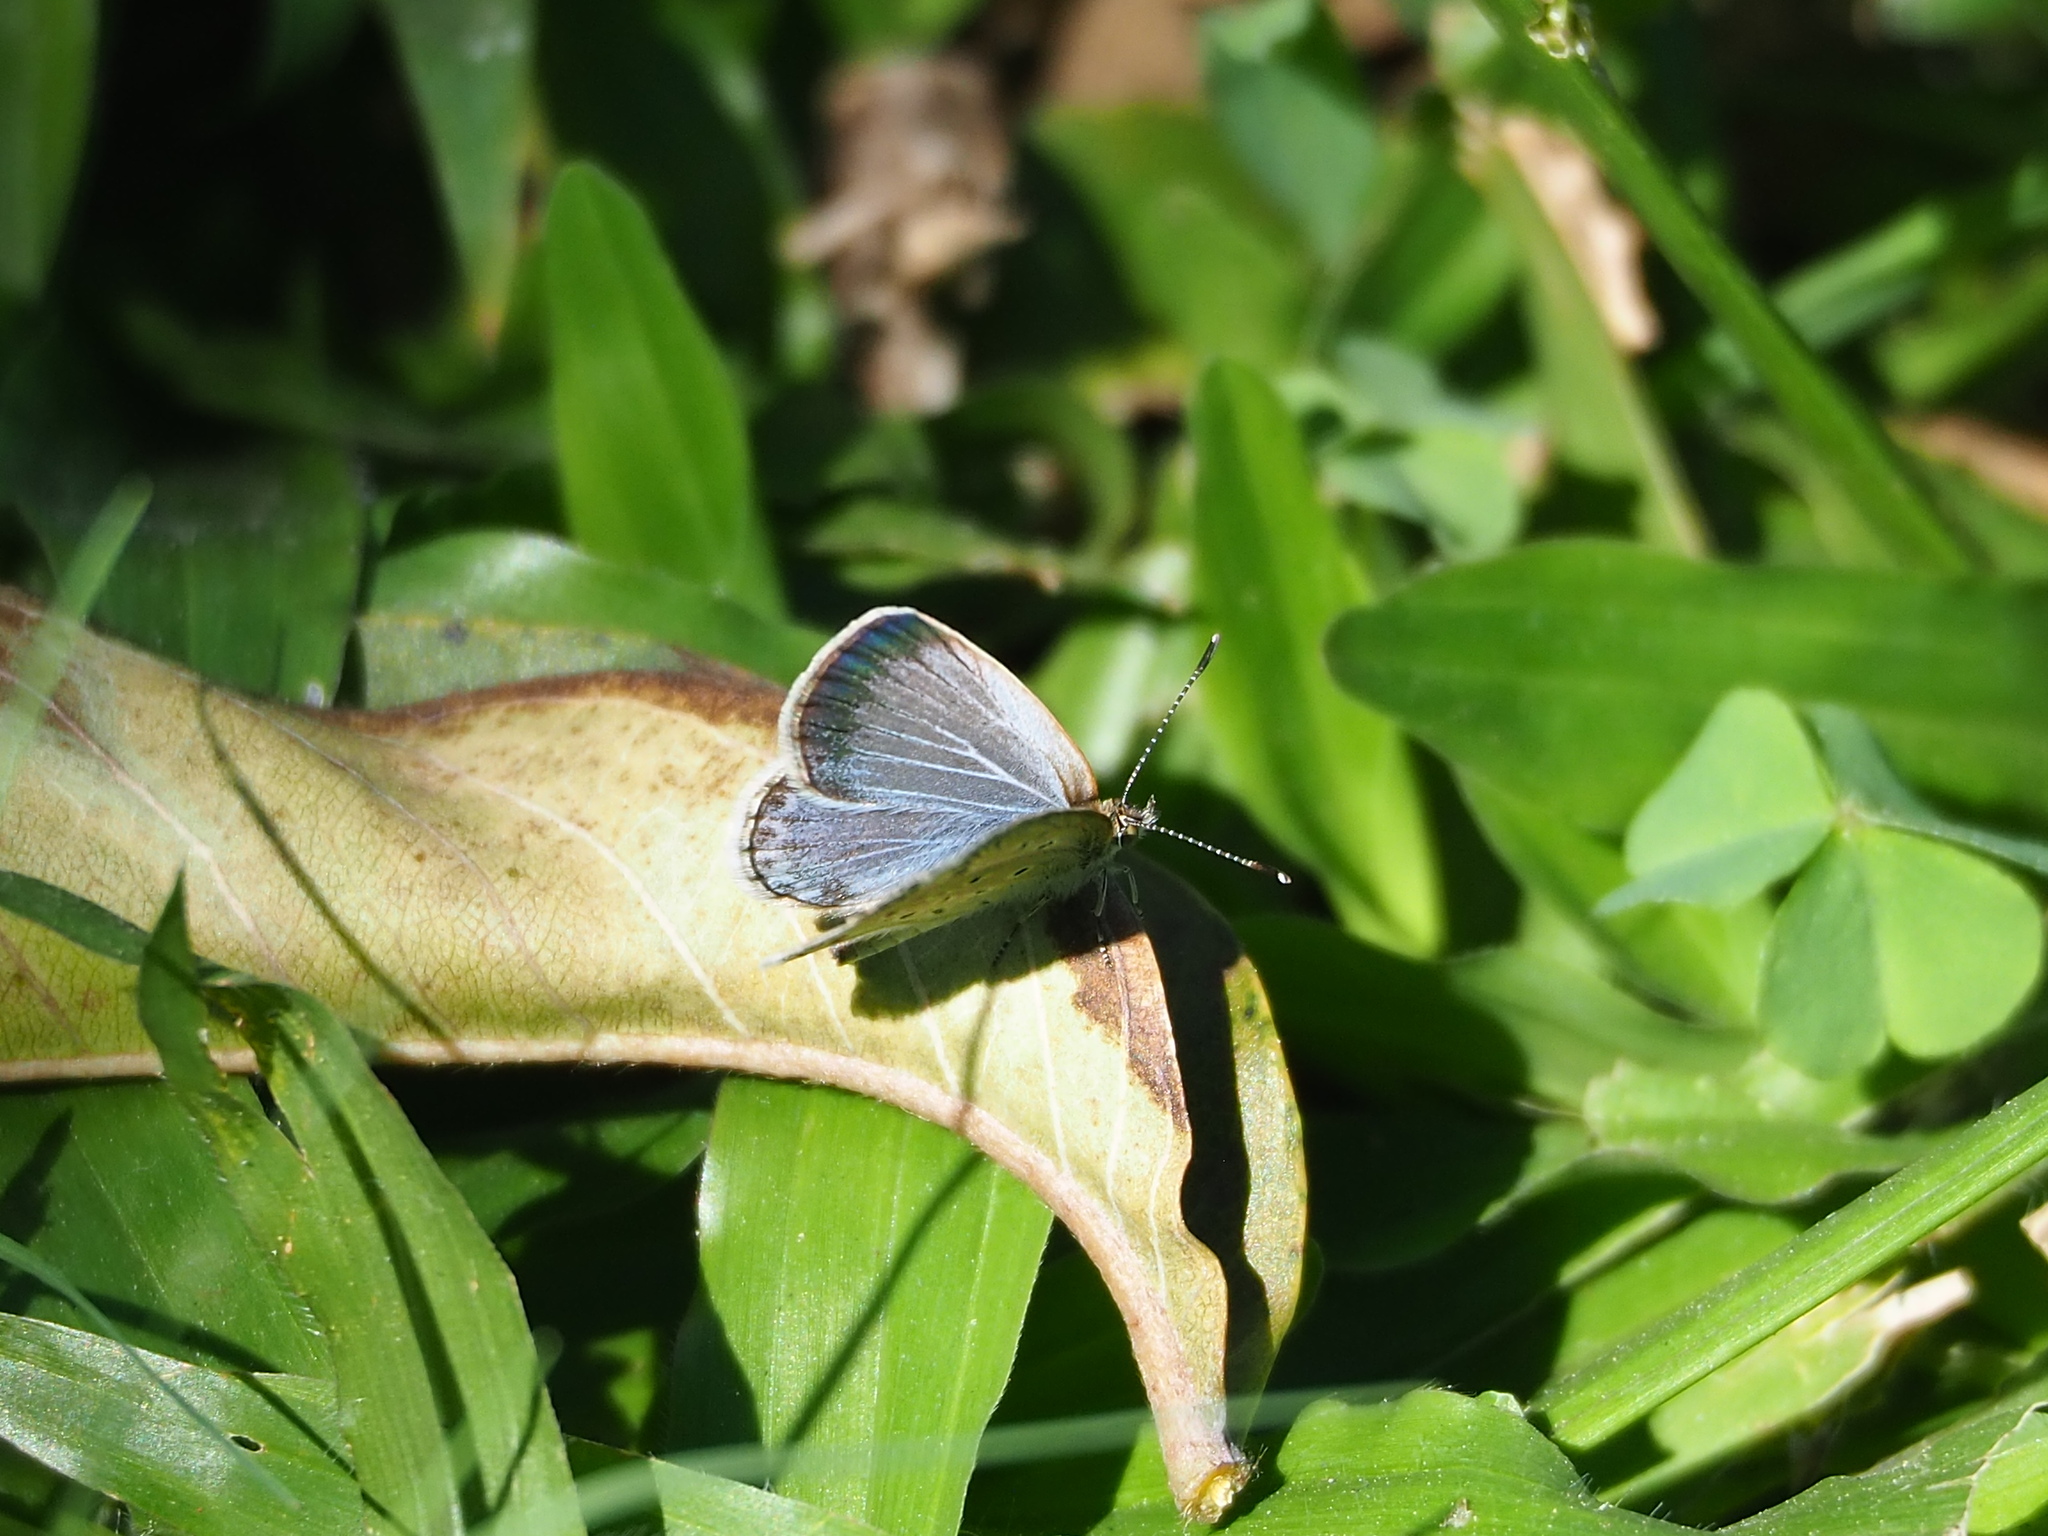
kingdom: Animalia
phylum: Arthropoda
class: Insecta
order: Lepidoptera
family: Lycaenidae
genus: Pseudozizeeria
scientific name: Pseudozizeeria maha
